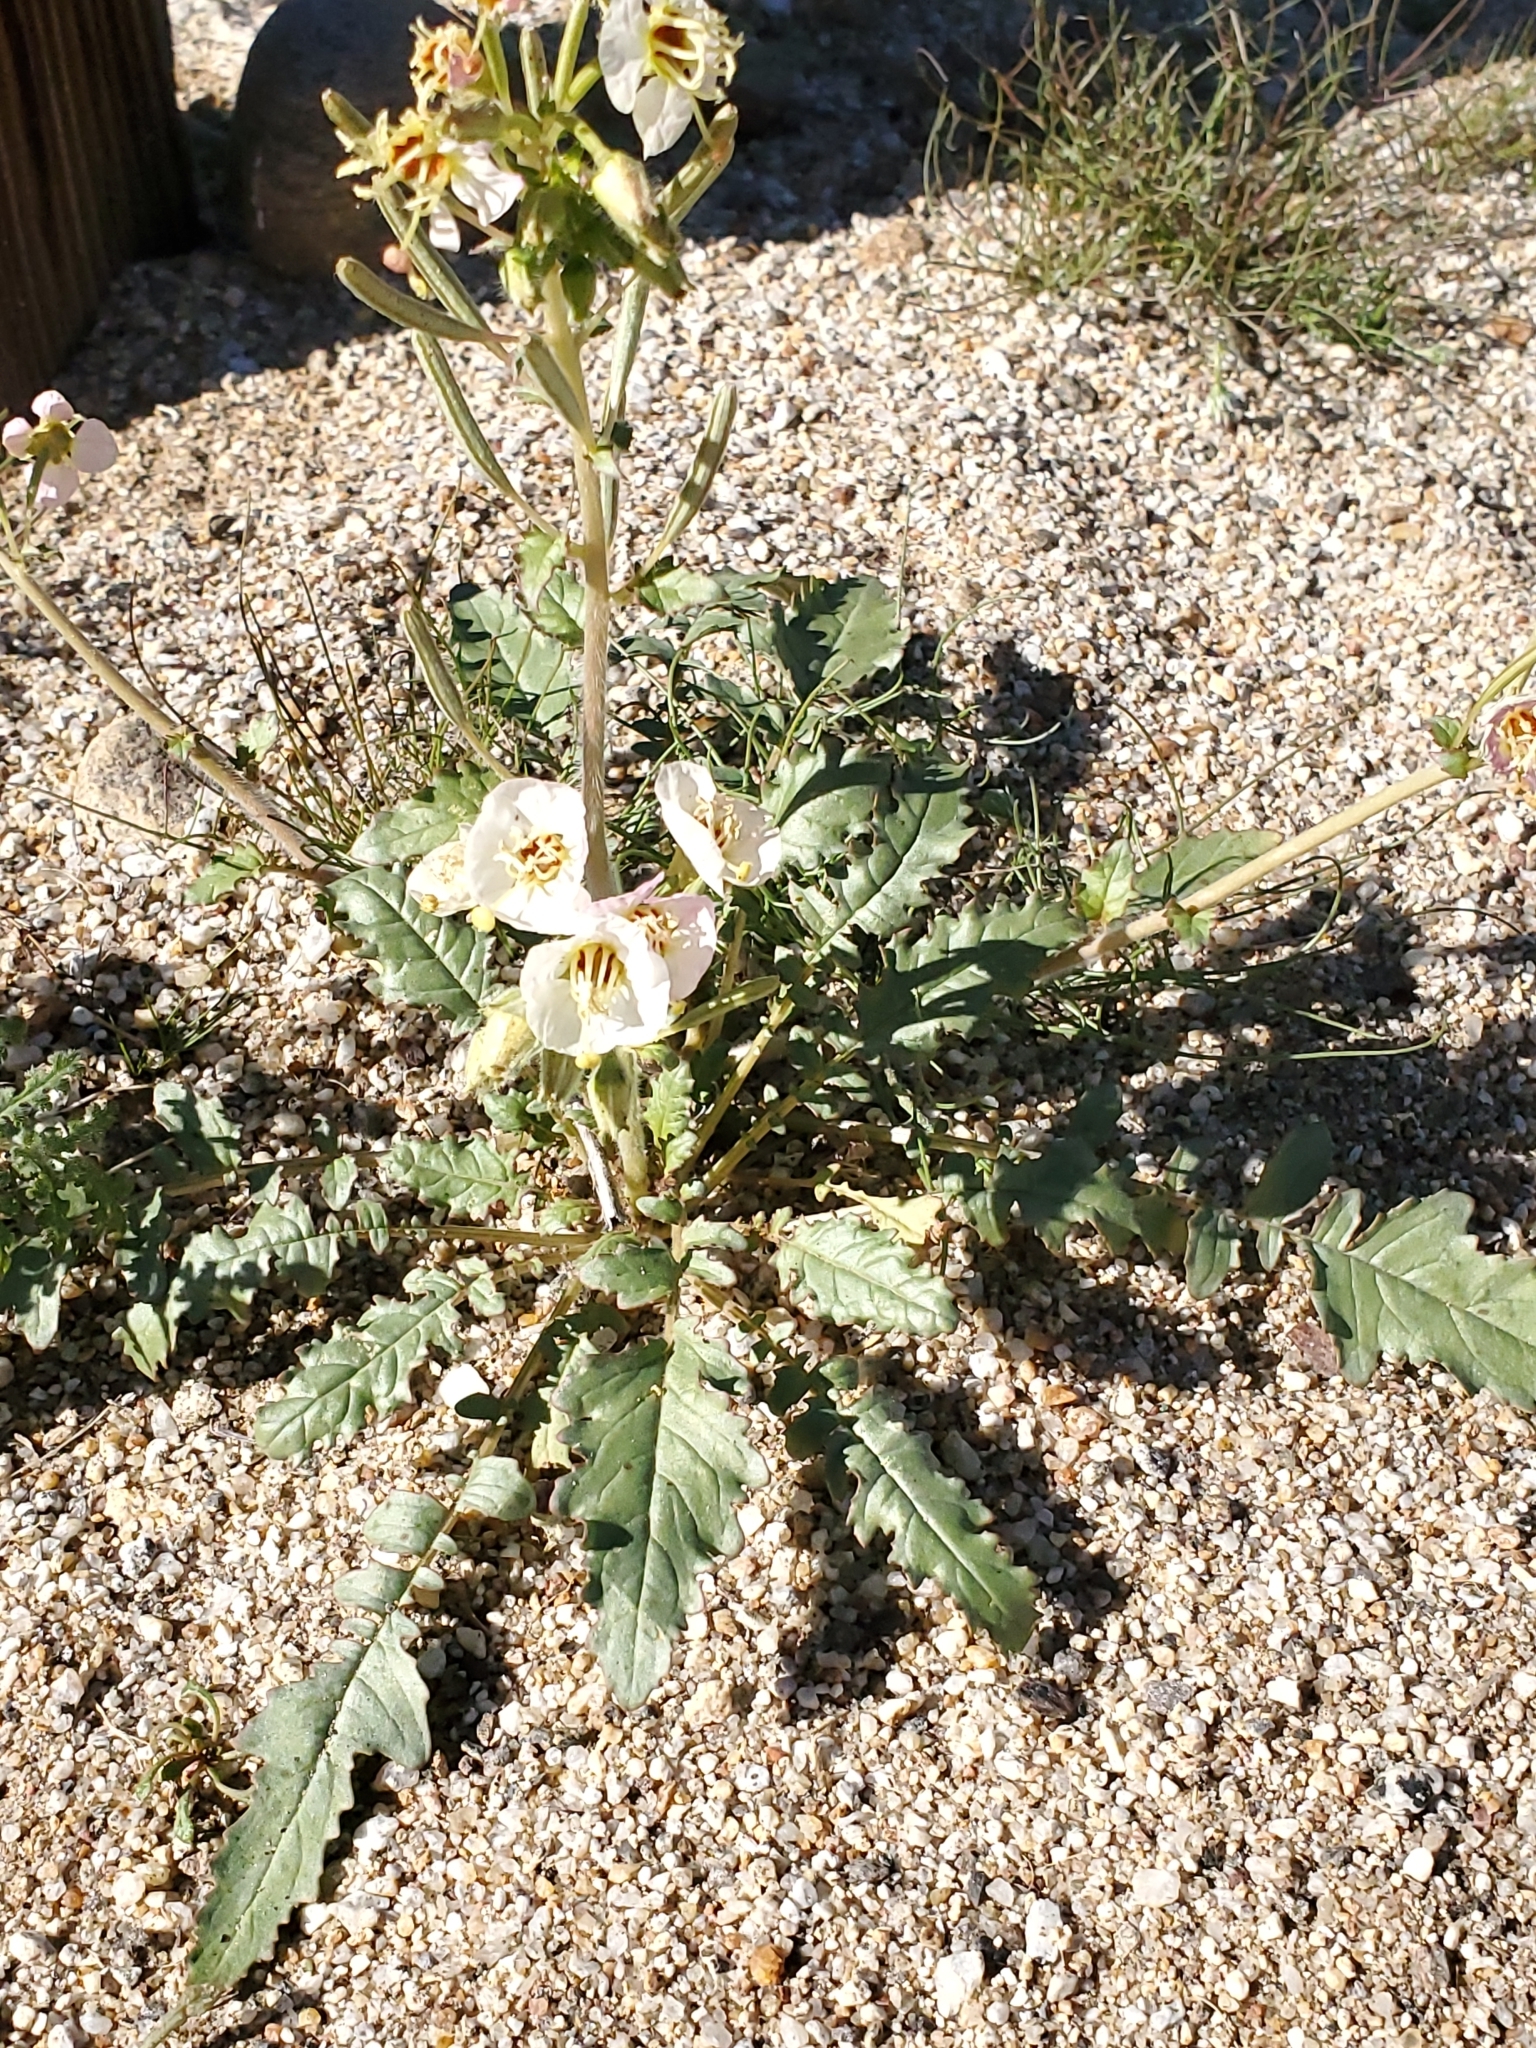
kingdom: Plantae
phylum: Tracheophyta
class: Magnoliopsida
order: Myrtales
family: Onagraceae
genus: Chylismia
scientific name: Chylismia claviformis
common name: Browneyes
